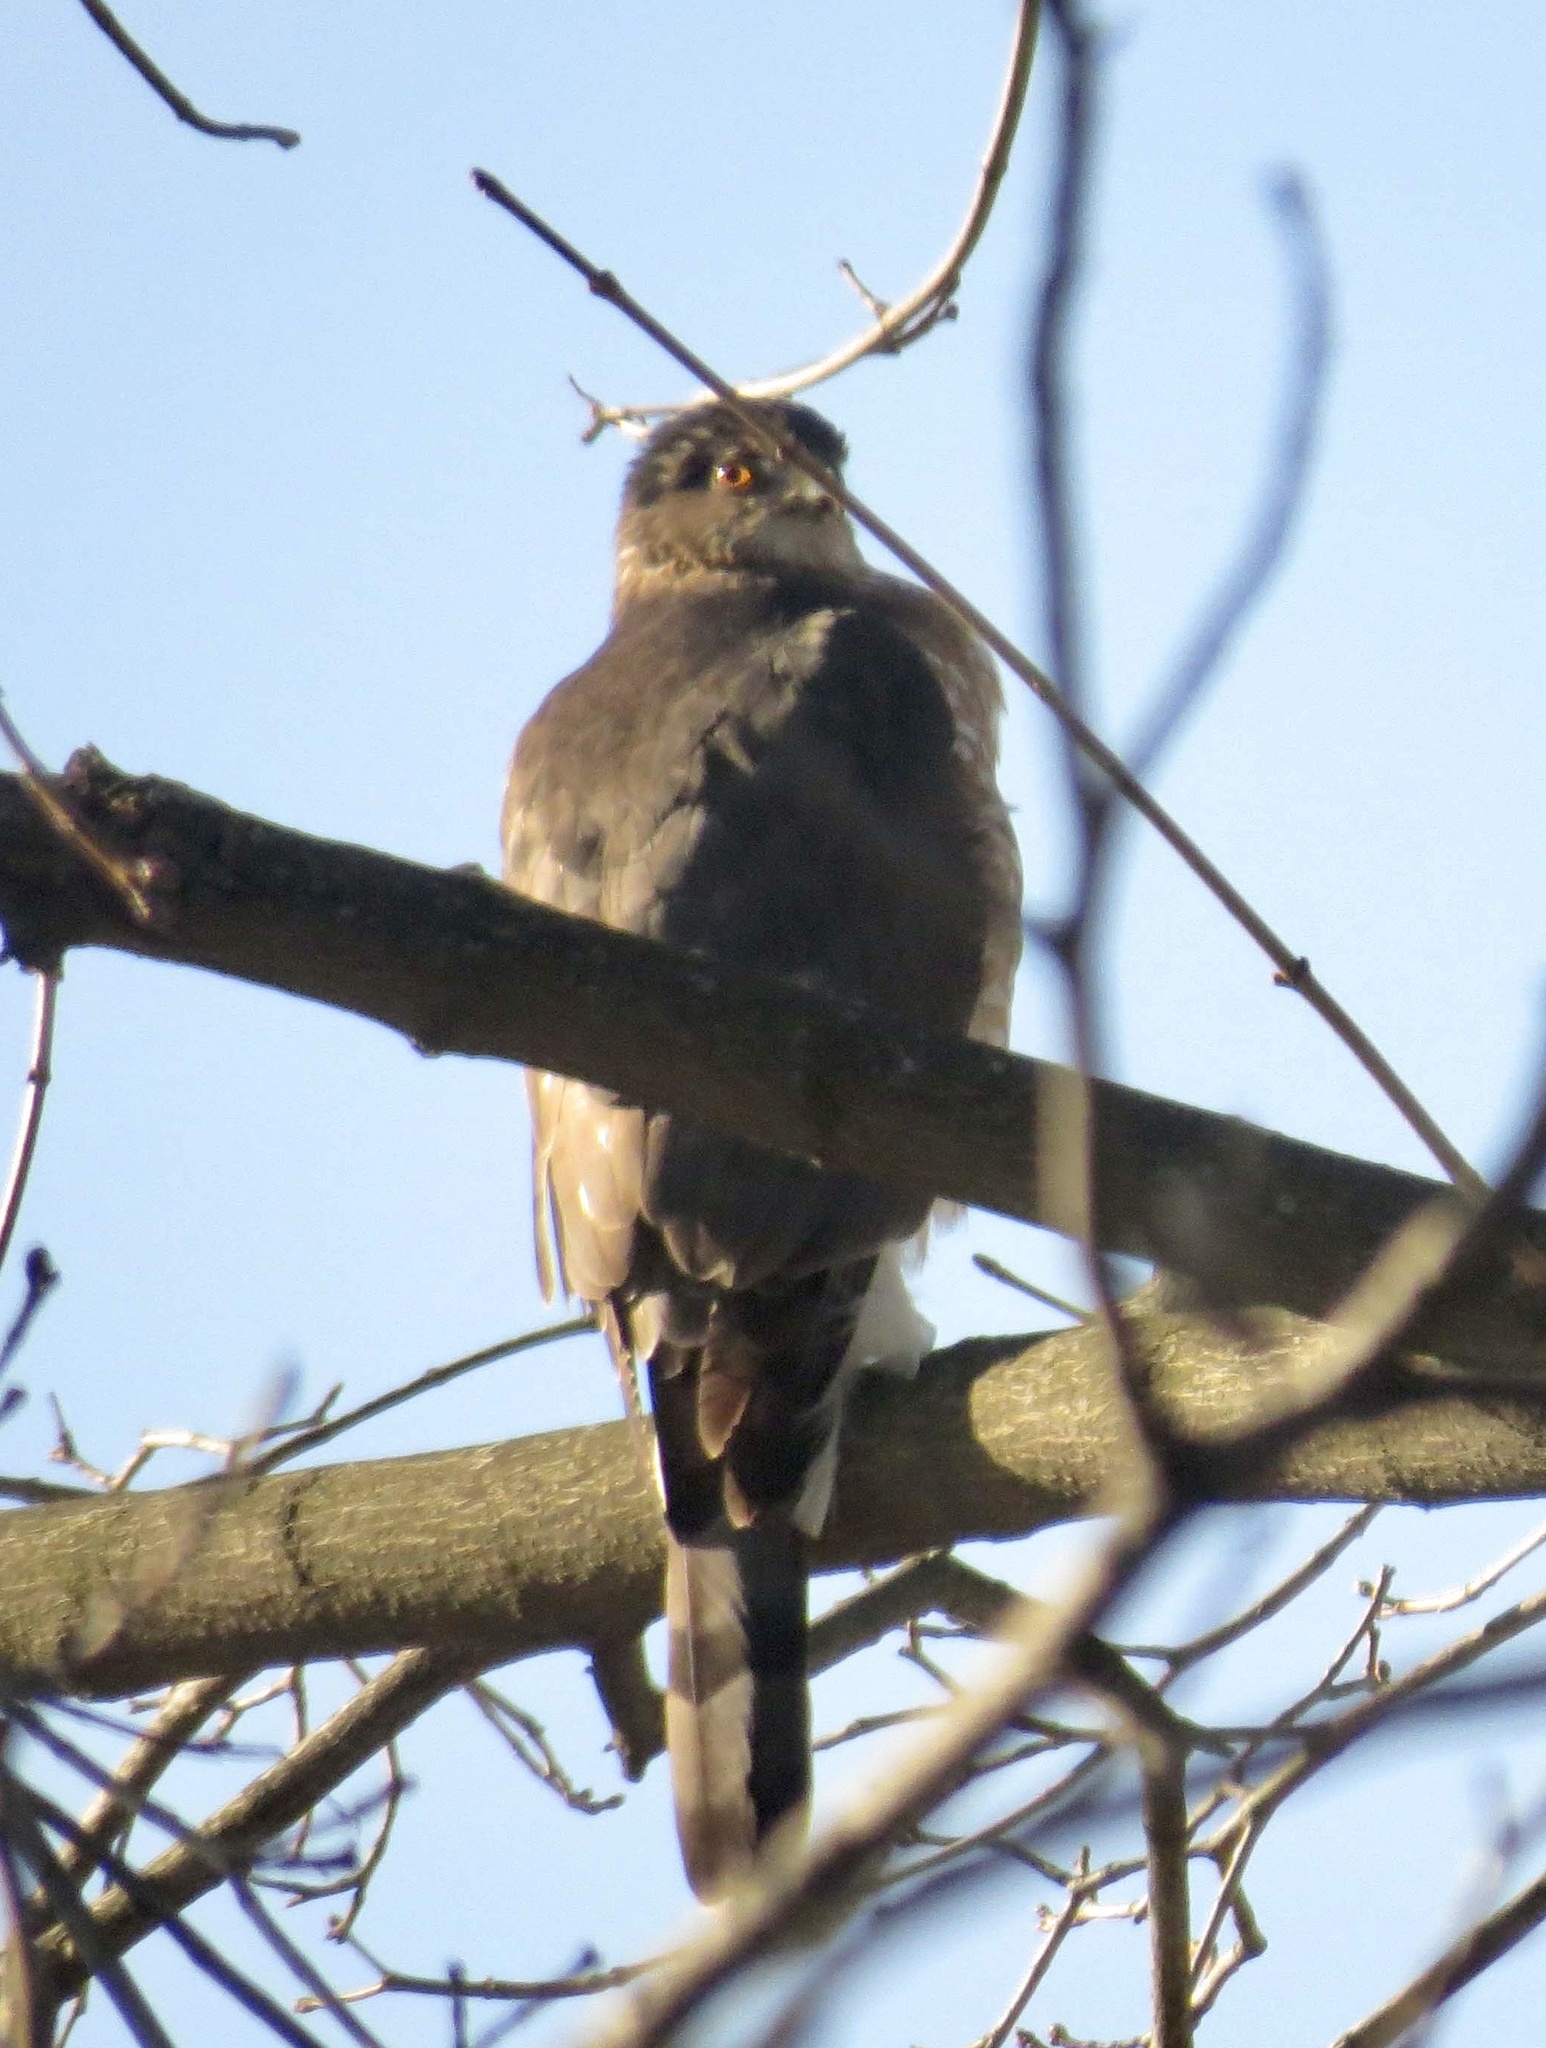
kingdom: Animalia
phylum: Chordata
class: Aves
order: Accipitriformes
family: Accipitridae
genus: Accipiter
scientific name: Accipiter cooperii
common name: Cooper's hawk
